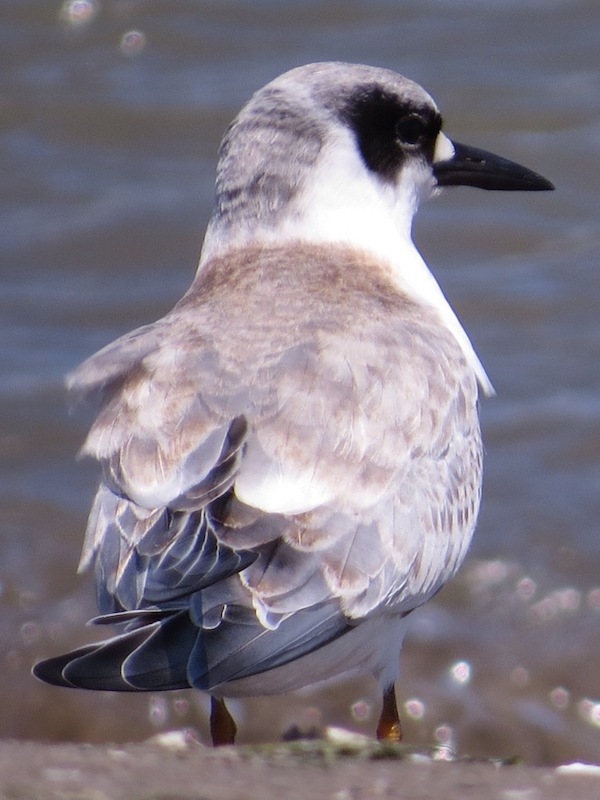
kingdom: Animalia
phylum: Chordata
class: Aves
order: Charadriiformes
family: Laridae
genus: Sterna
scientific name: Sterna forsteri
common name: Forster's tern
